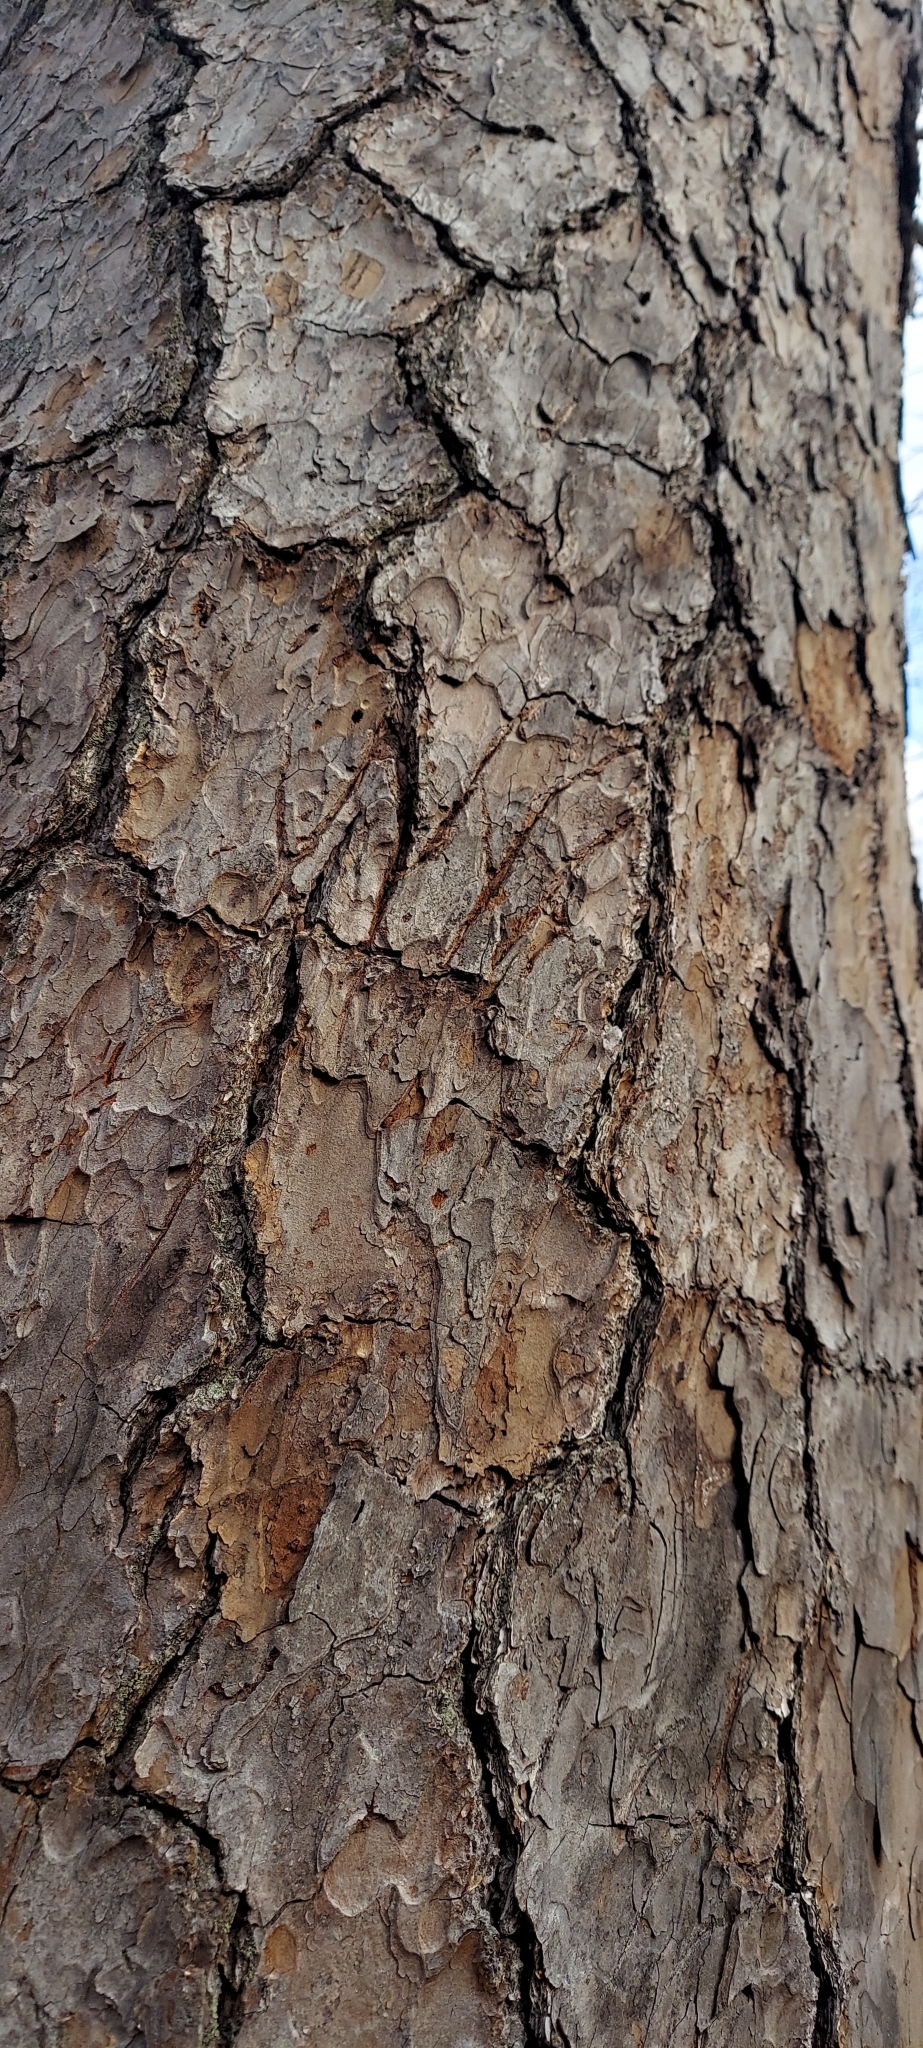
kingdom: Animalia
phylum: Chordata
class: Mammalia
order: Carnivora
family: Ursidae
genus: Ursus
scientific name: Ursus americanus
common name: American black bear
